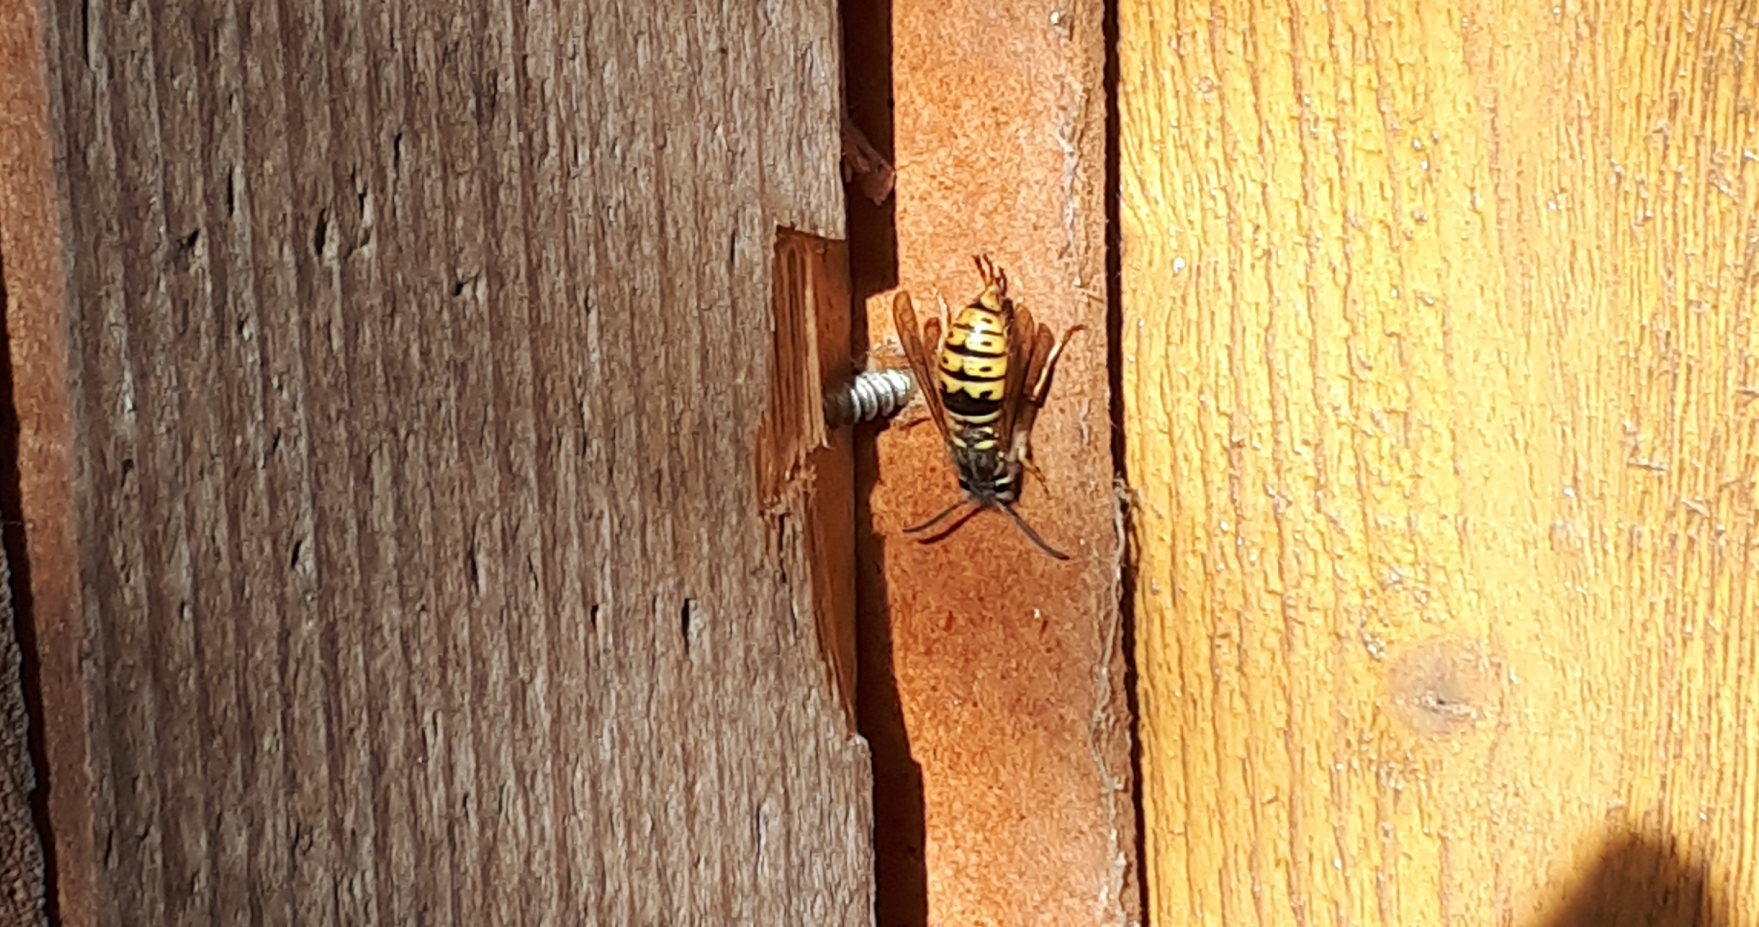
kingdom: Animalia
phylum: Arthropoda
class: Insecta
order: Hymenoptera
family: Vespidae
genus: Vespula
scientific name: Vespula vulgaris
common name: Common wasp
